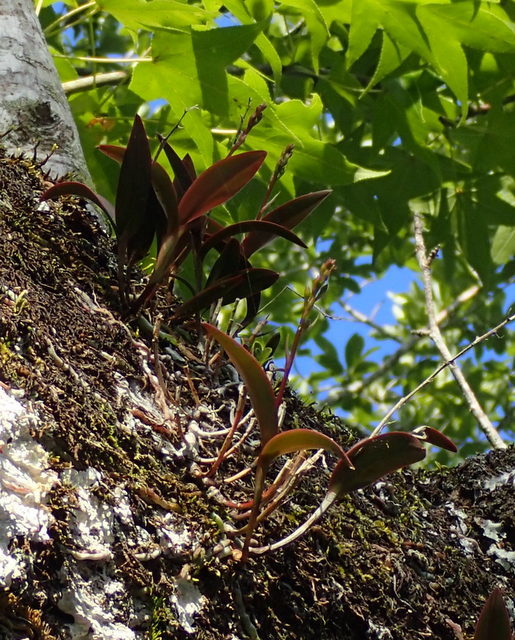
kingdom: Plantae
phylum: Tracheophyta
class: Liliopsida
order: Asparagales
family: Orchidaceae
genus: Epidendrum
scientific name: Epidendrum conopseum
